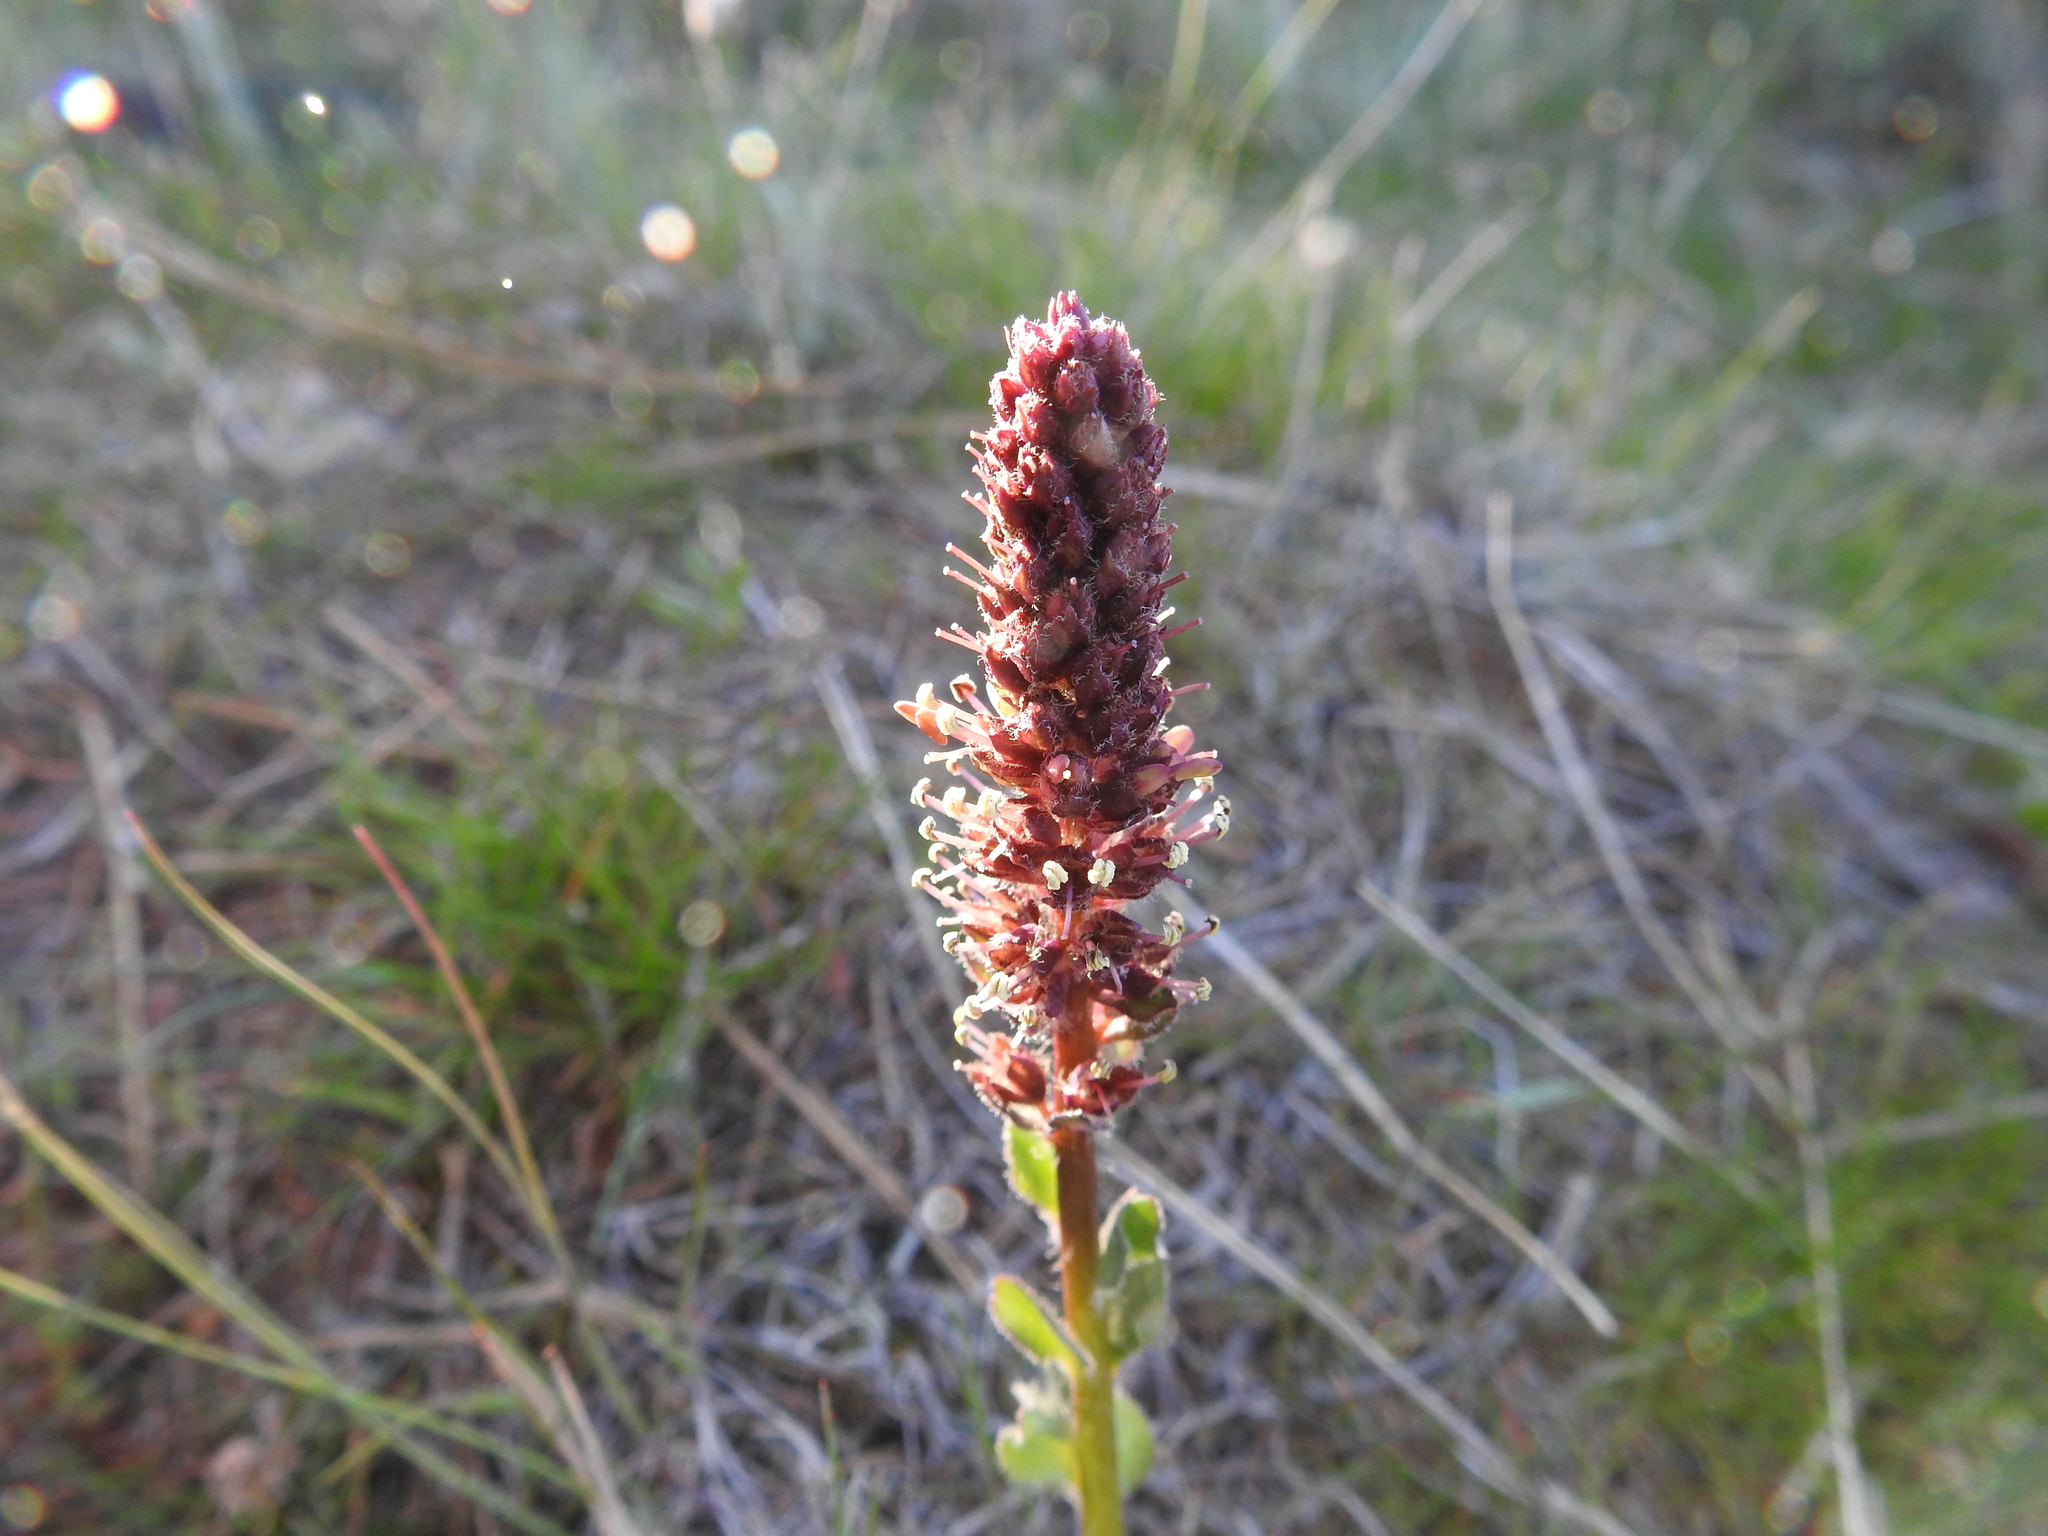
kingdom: Plantae
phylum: Tracheophyta
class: Magnoliopsida
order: Lamiales
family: Plantaginaceae
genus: Synthyris
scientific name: Synthyris rubra
